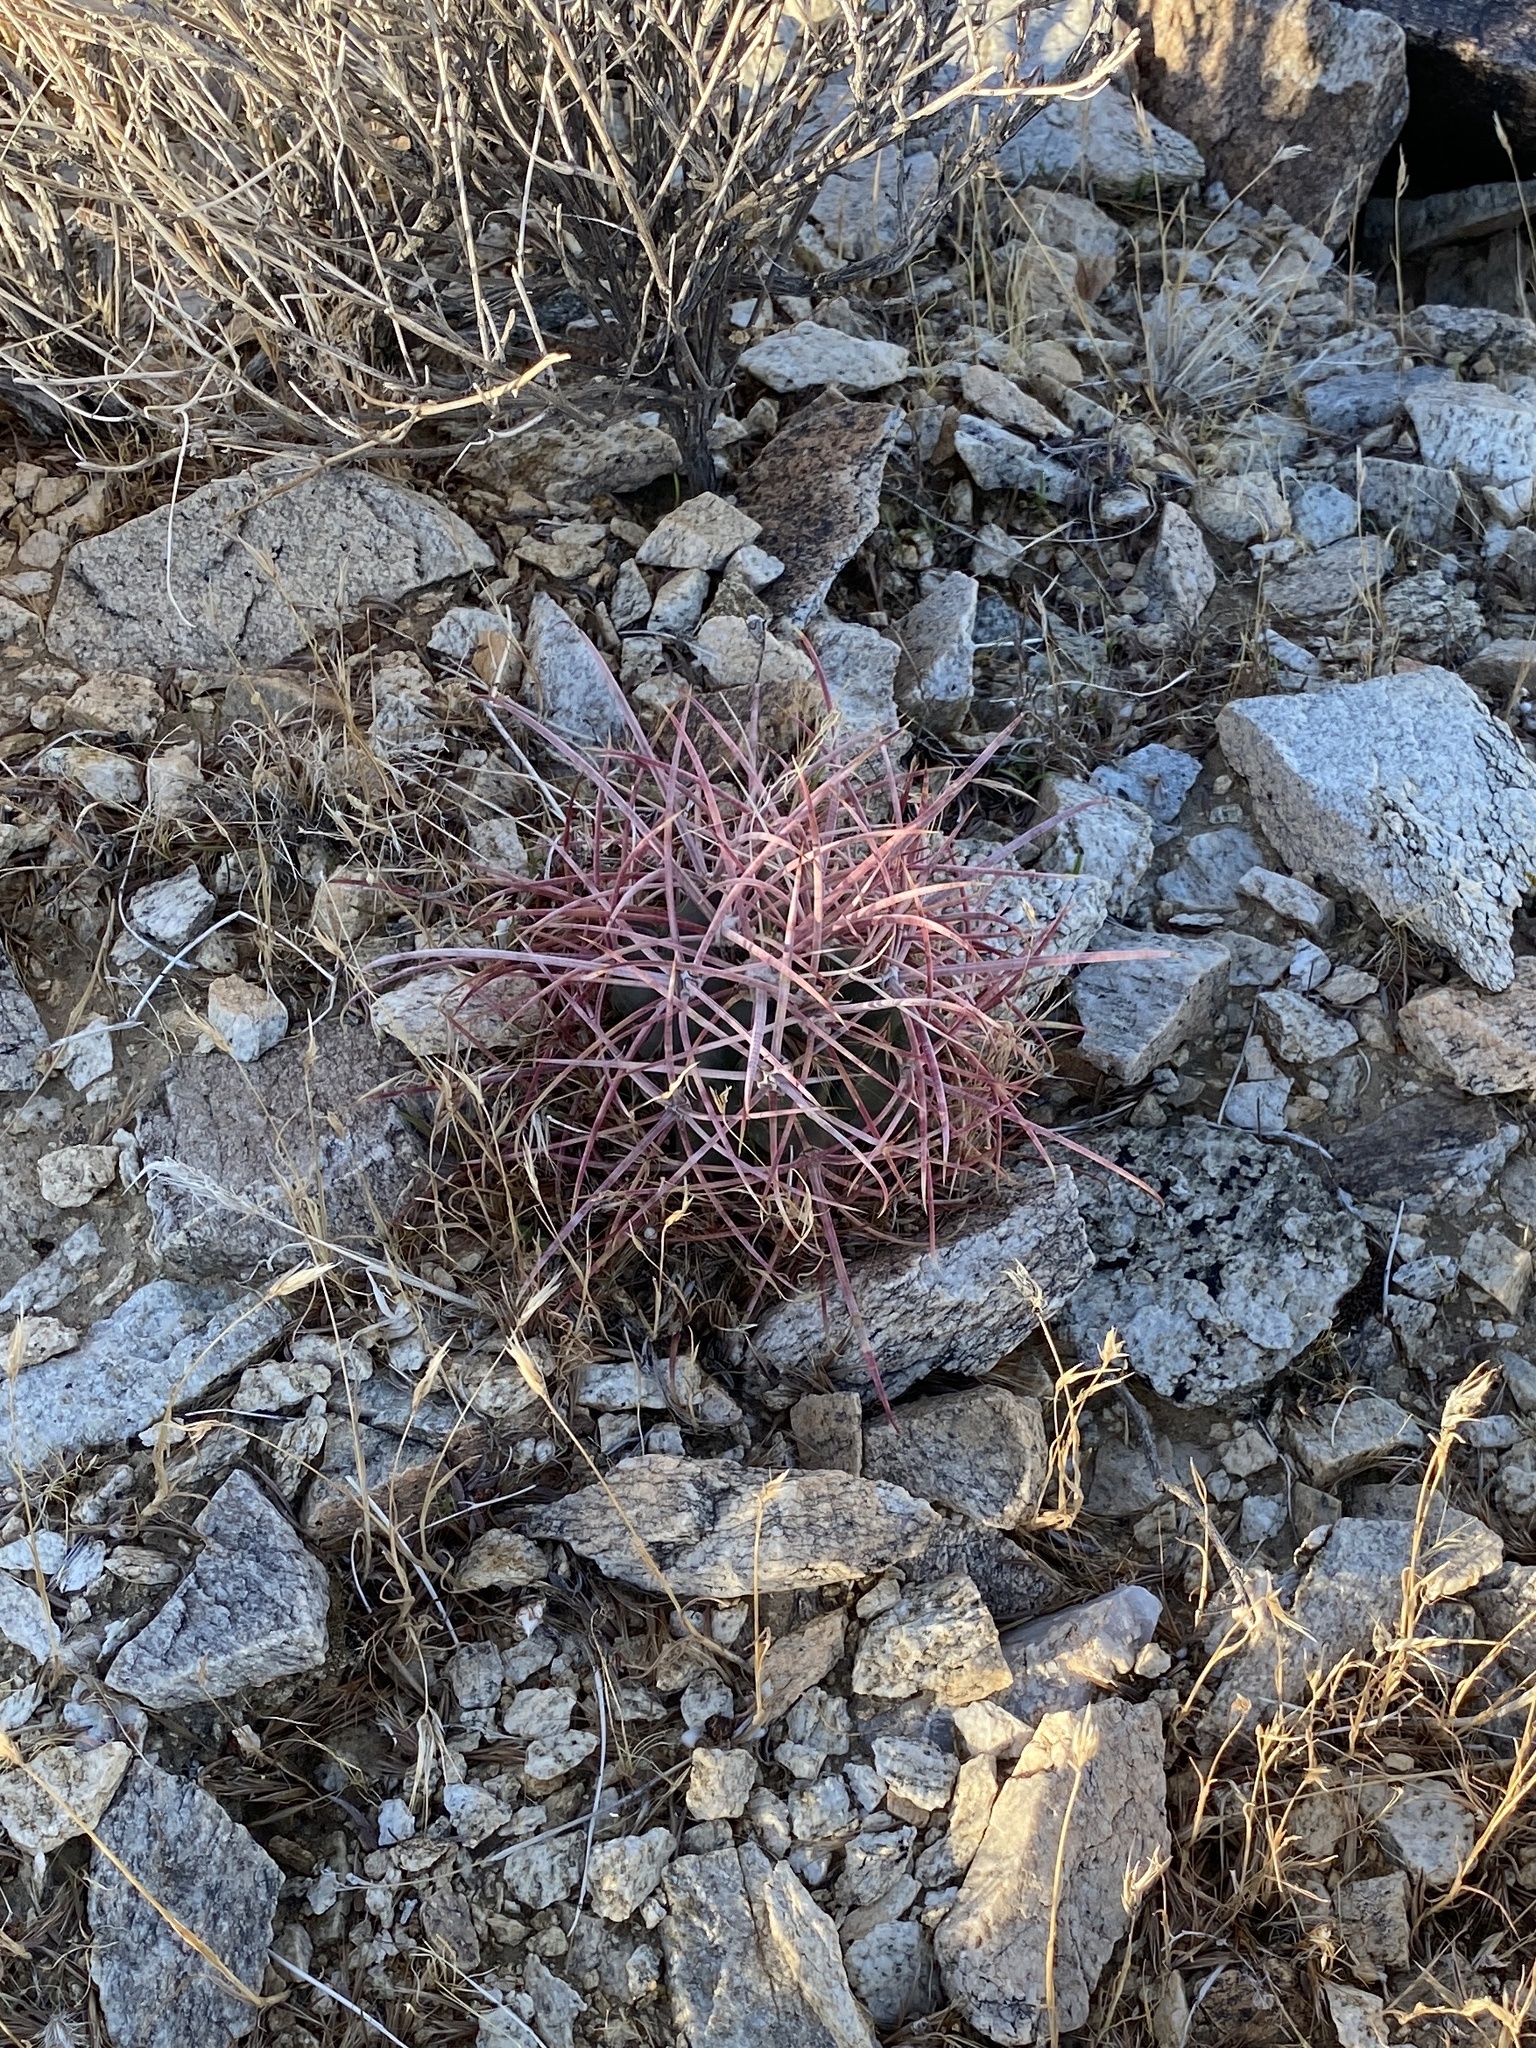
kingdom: Plantae
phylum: Tracheophyta
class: Magnoliopsida
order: Caryophyllales
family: Cactaceae
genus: Ferocactus
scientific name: Ferocactus cylindraceus
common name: California barrel cactus
